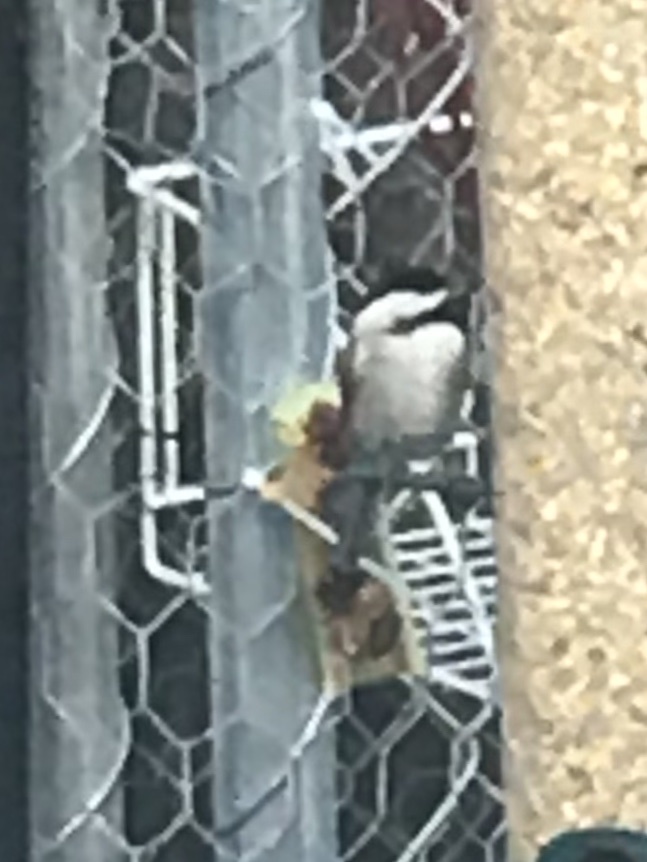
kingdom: Animalia
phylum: Chordata
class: Aves
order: Passeriformes
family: Paridae
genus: Poecile
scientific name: Poecile carolinensis
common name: Carolina chickadee
